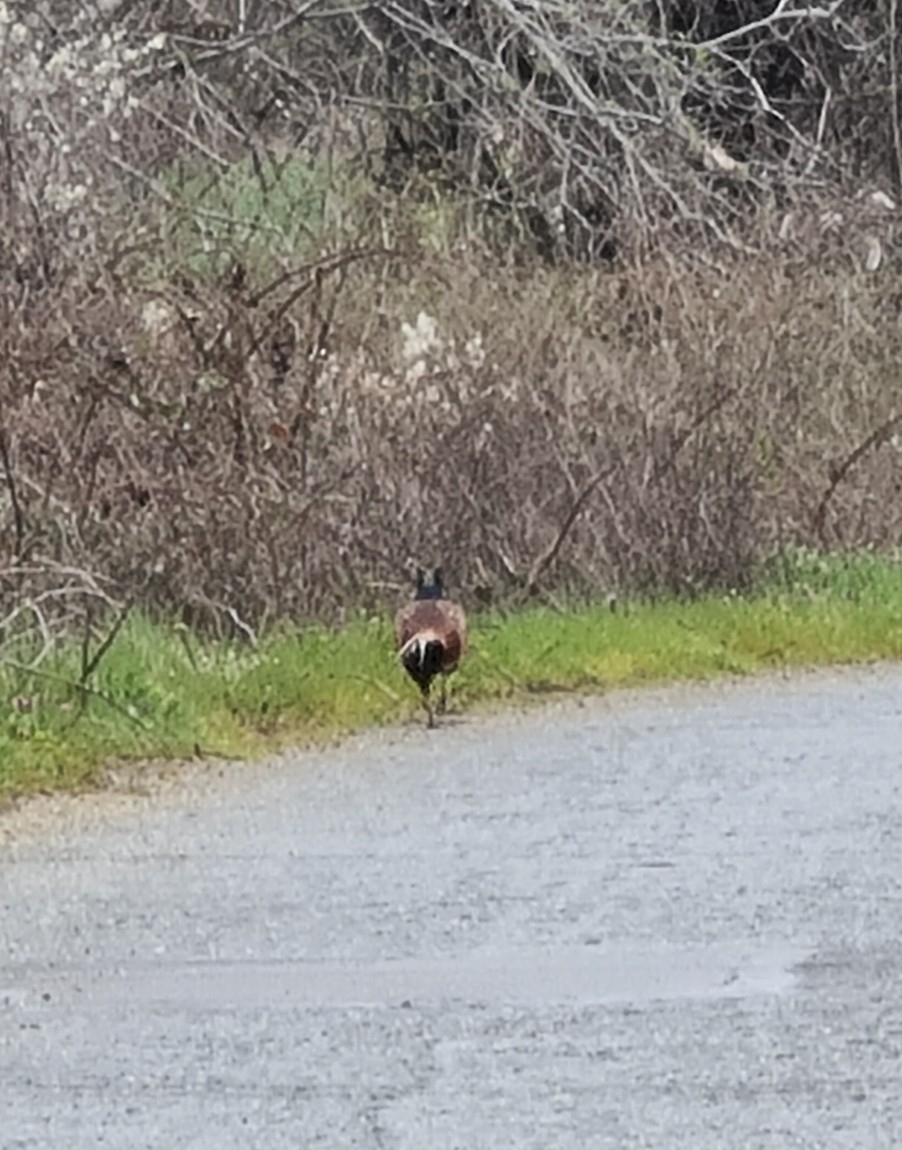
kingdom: Animalia
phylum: Chordata
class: Aves
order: Galliformes
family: Phasianidae
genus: Phasianus
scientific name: Phasianus colchicus
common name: Common pheasant
